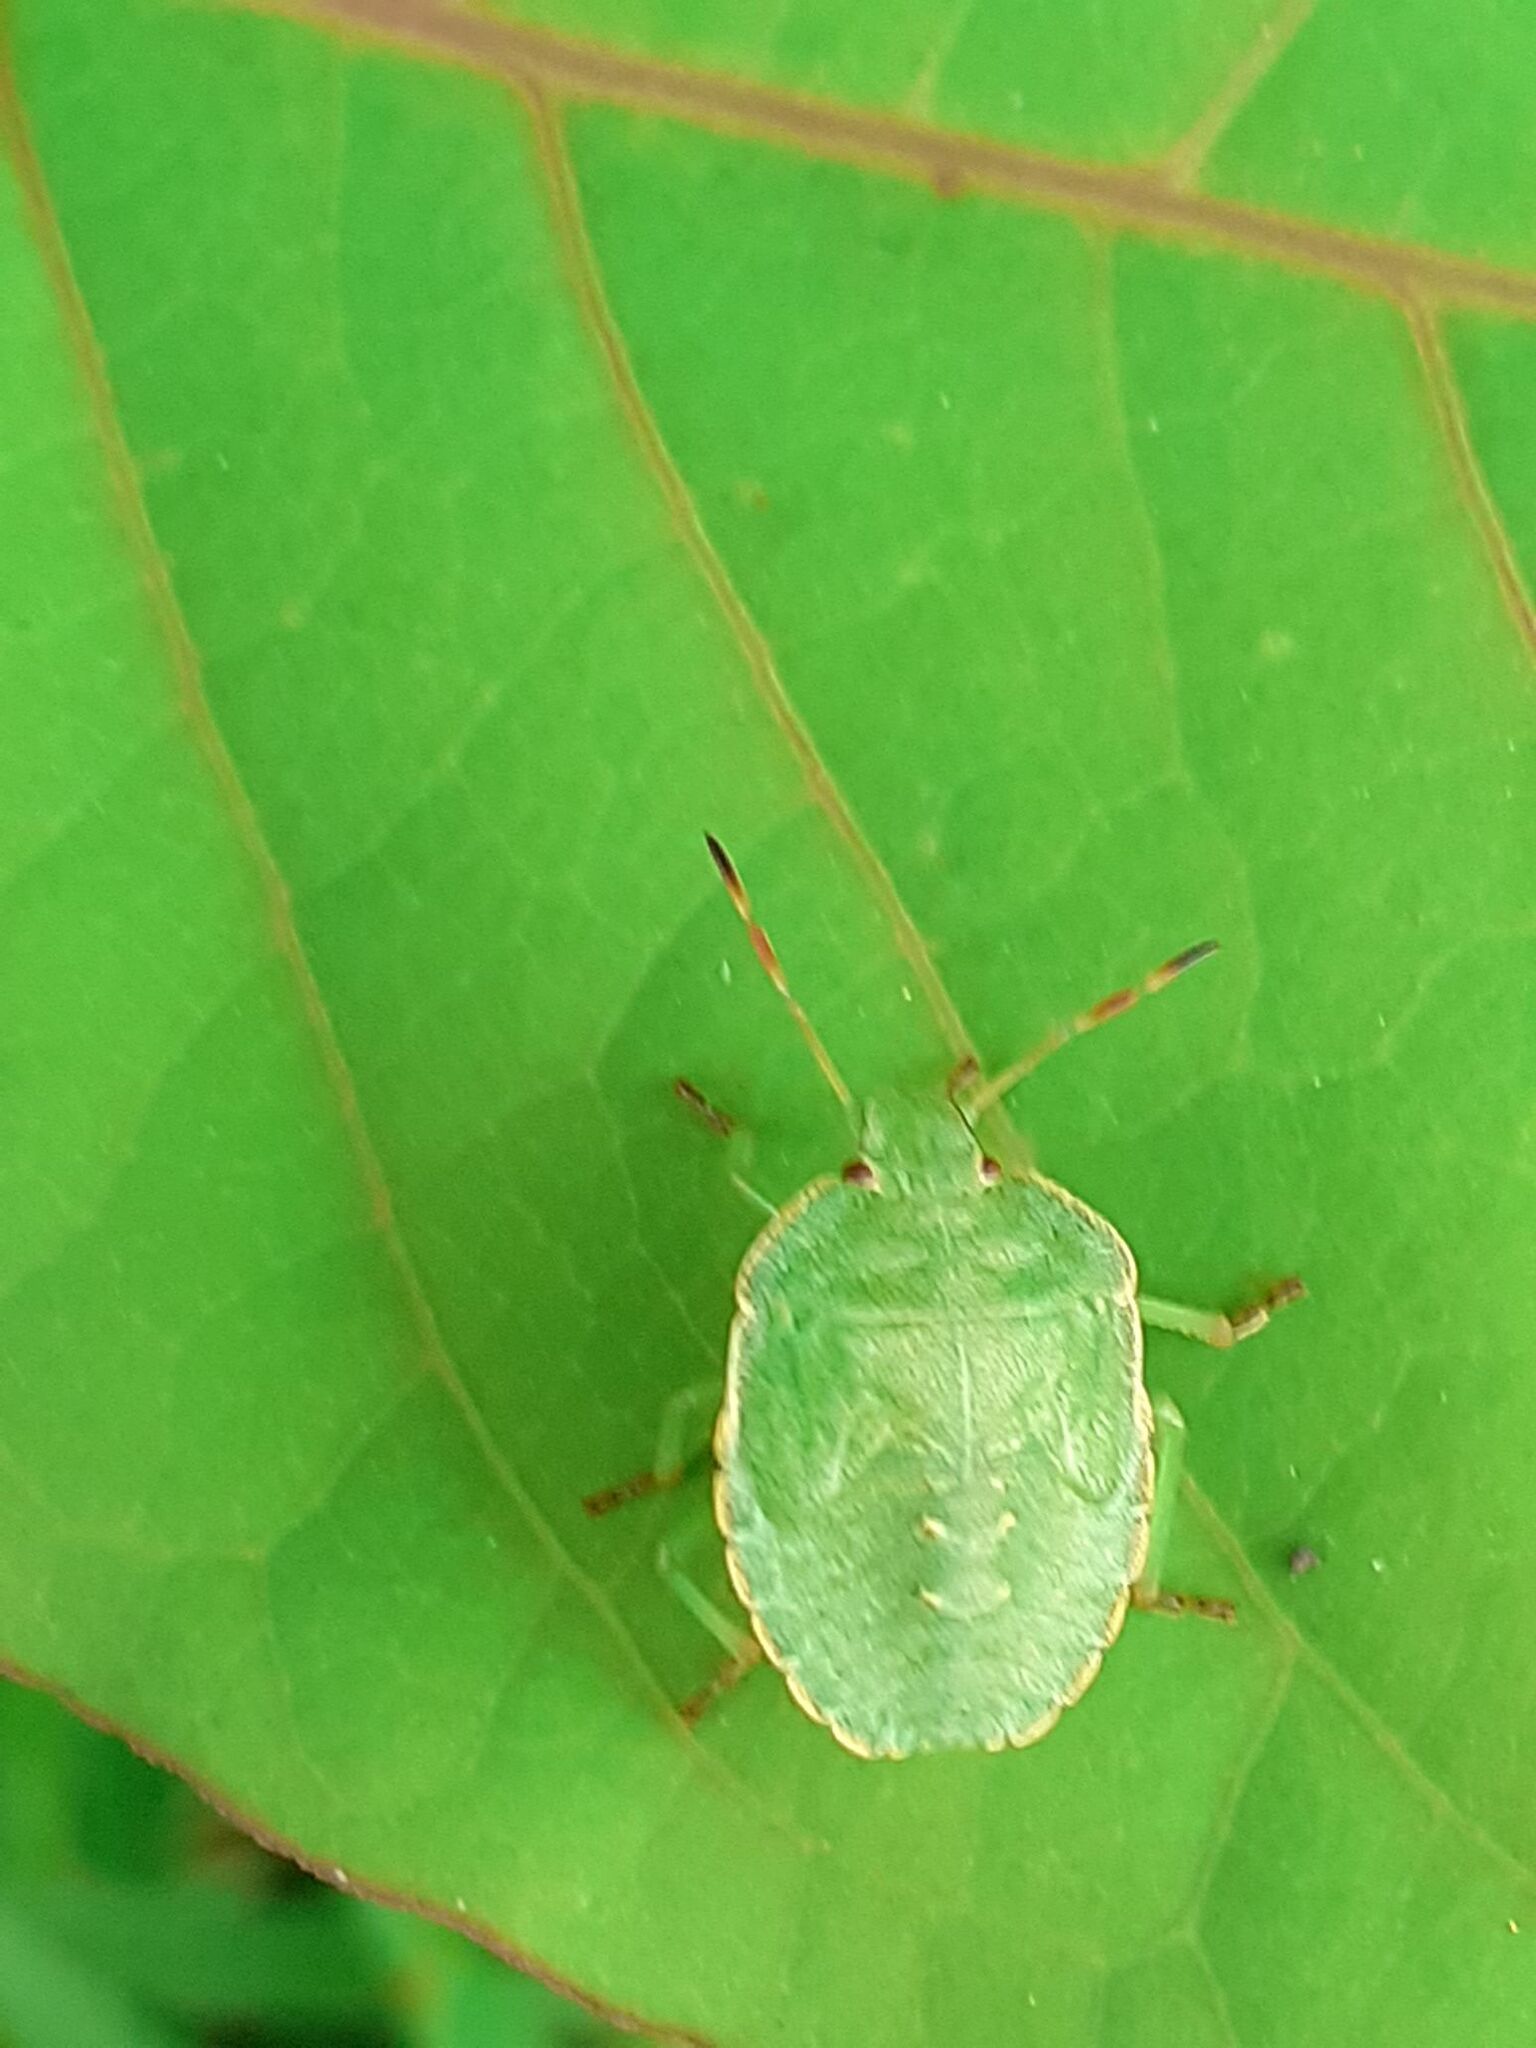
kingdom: Animalia
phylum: Arthropoda
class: Insecta
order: Hemiptera
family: Pentatomidae
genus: Palomena
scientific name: Palomena prasina
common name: Green shieldbug
